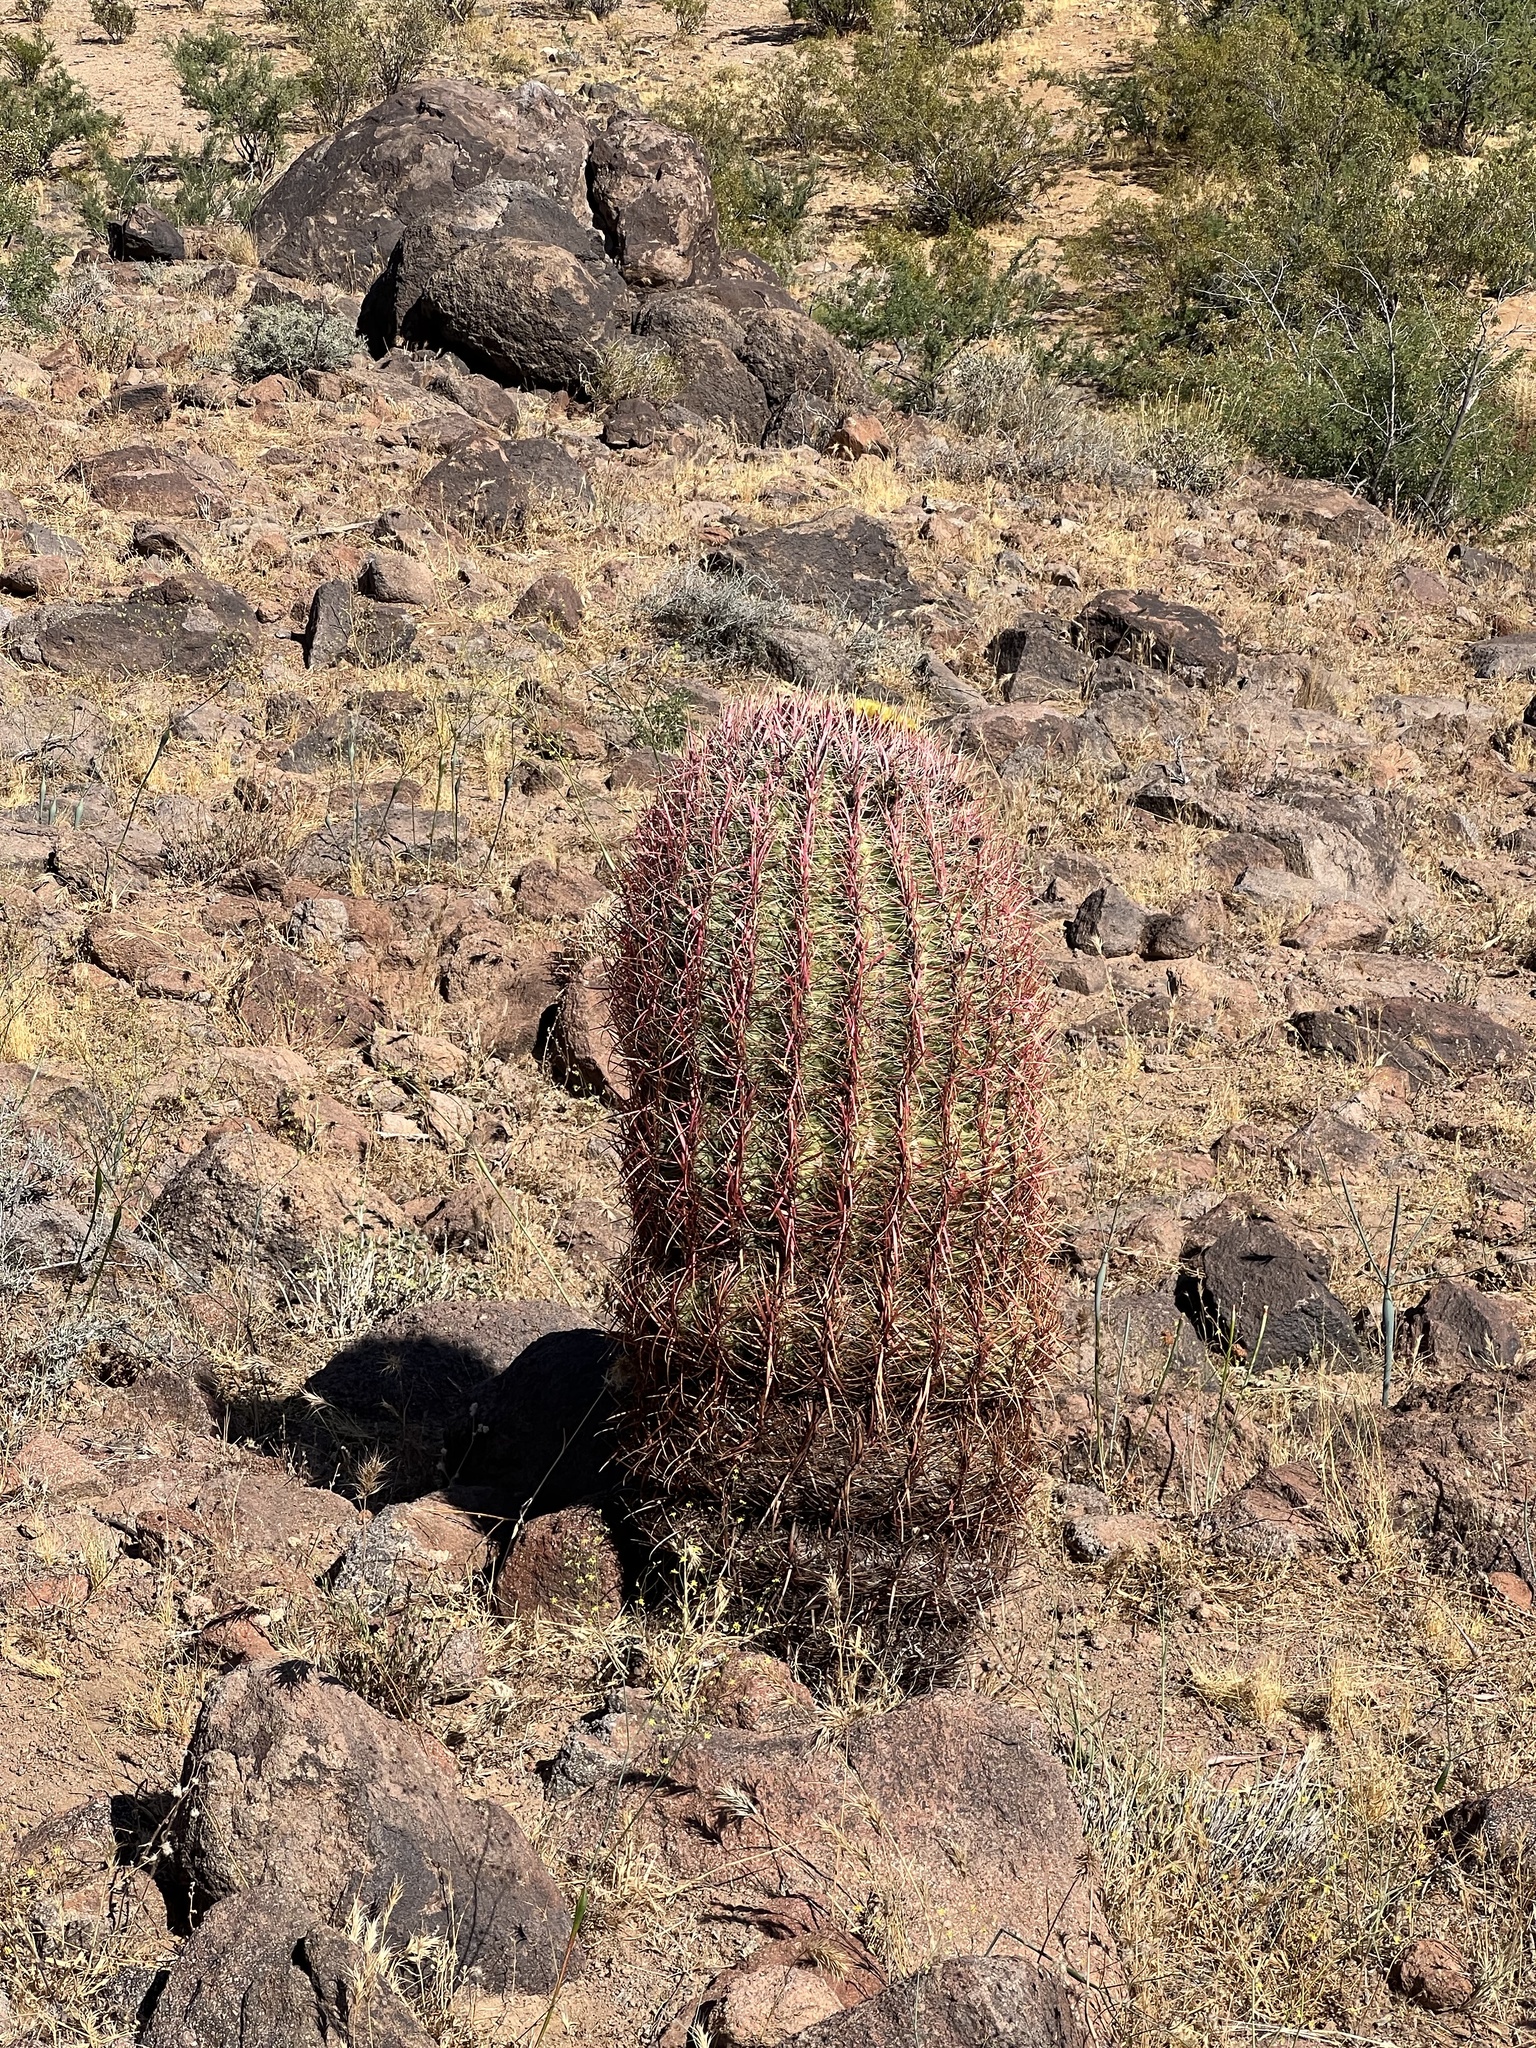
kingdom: Plantae
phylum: Tracheophyta
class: Magnoliopsida
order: Caryophyllales
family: Cactaceae
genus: Ferocactus
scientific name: Ferocactus cylindraceus
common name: California barrel cactus
